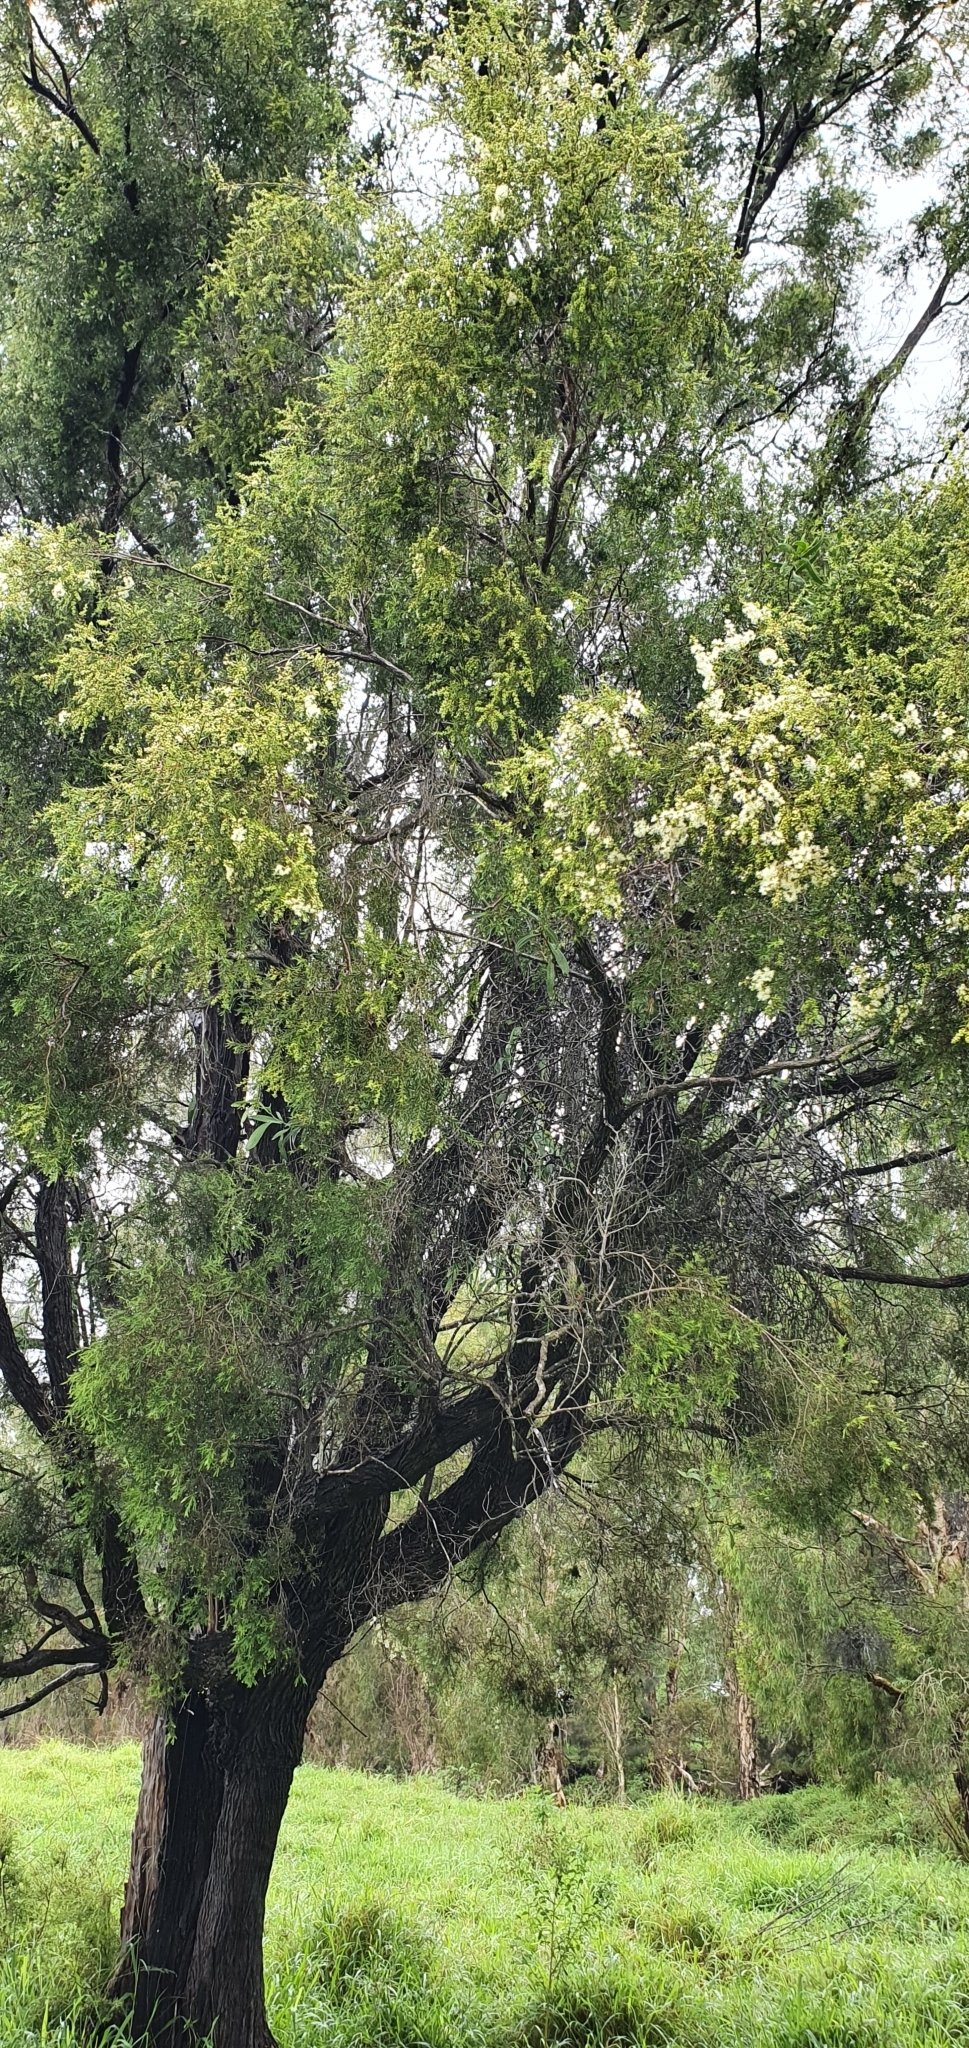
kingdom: Plantae
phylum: Tracheophyta
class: Magnoliopsida
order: Myrtales
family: Myrtaceae
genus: Melaleuca
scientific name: Melaleuca bracteata
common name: Black tea-tree
